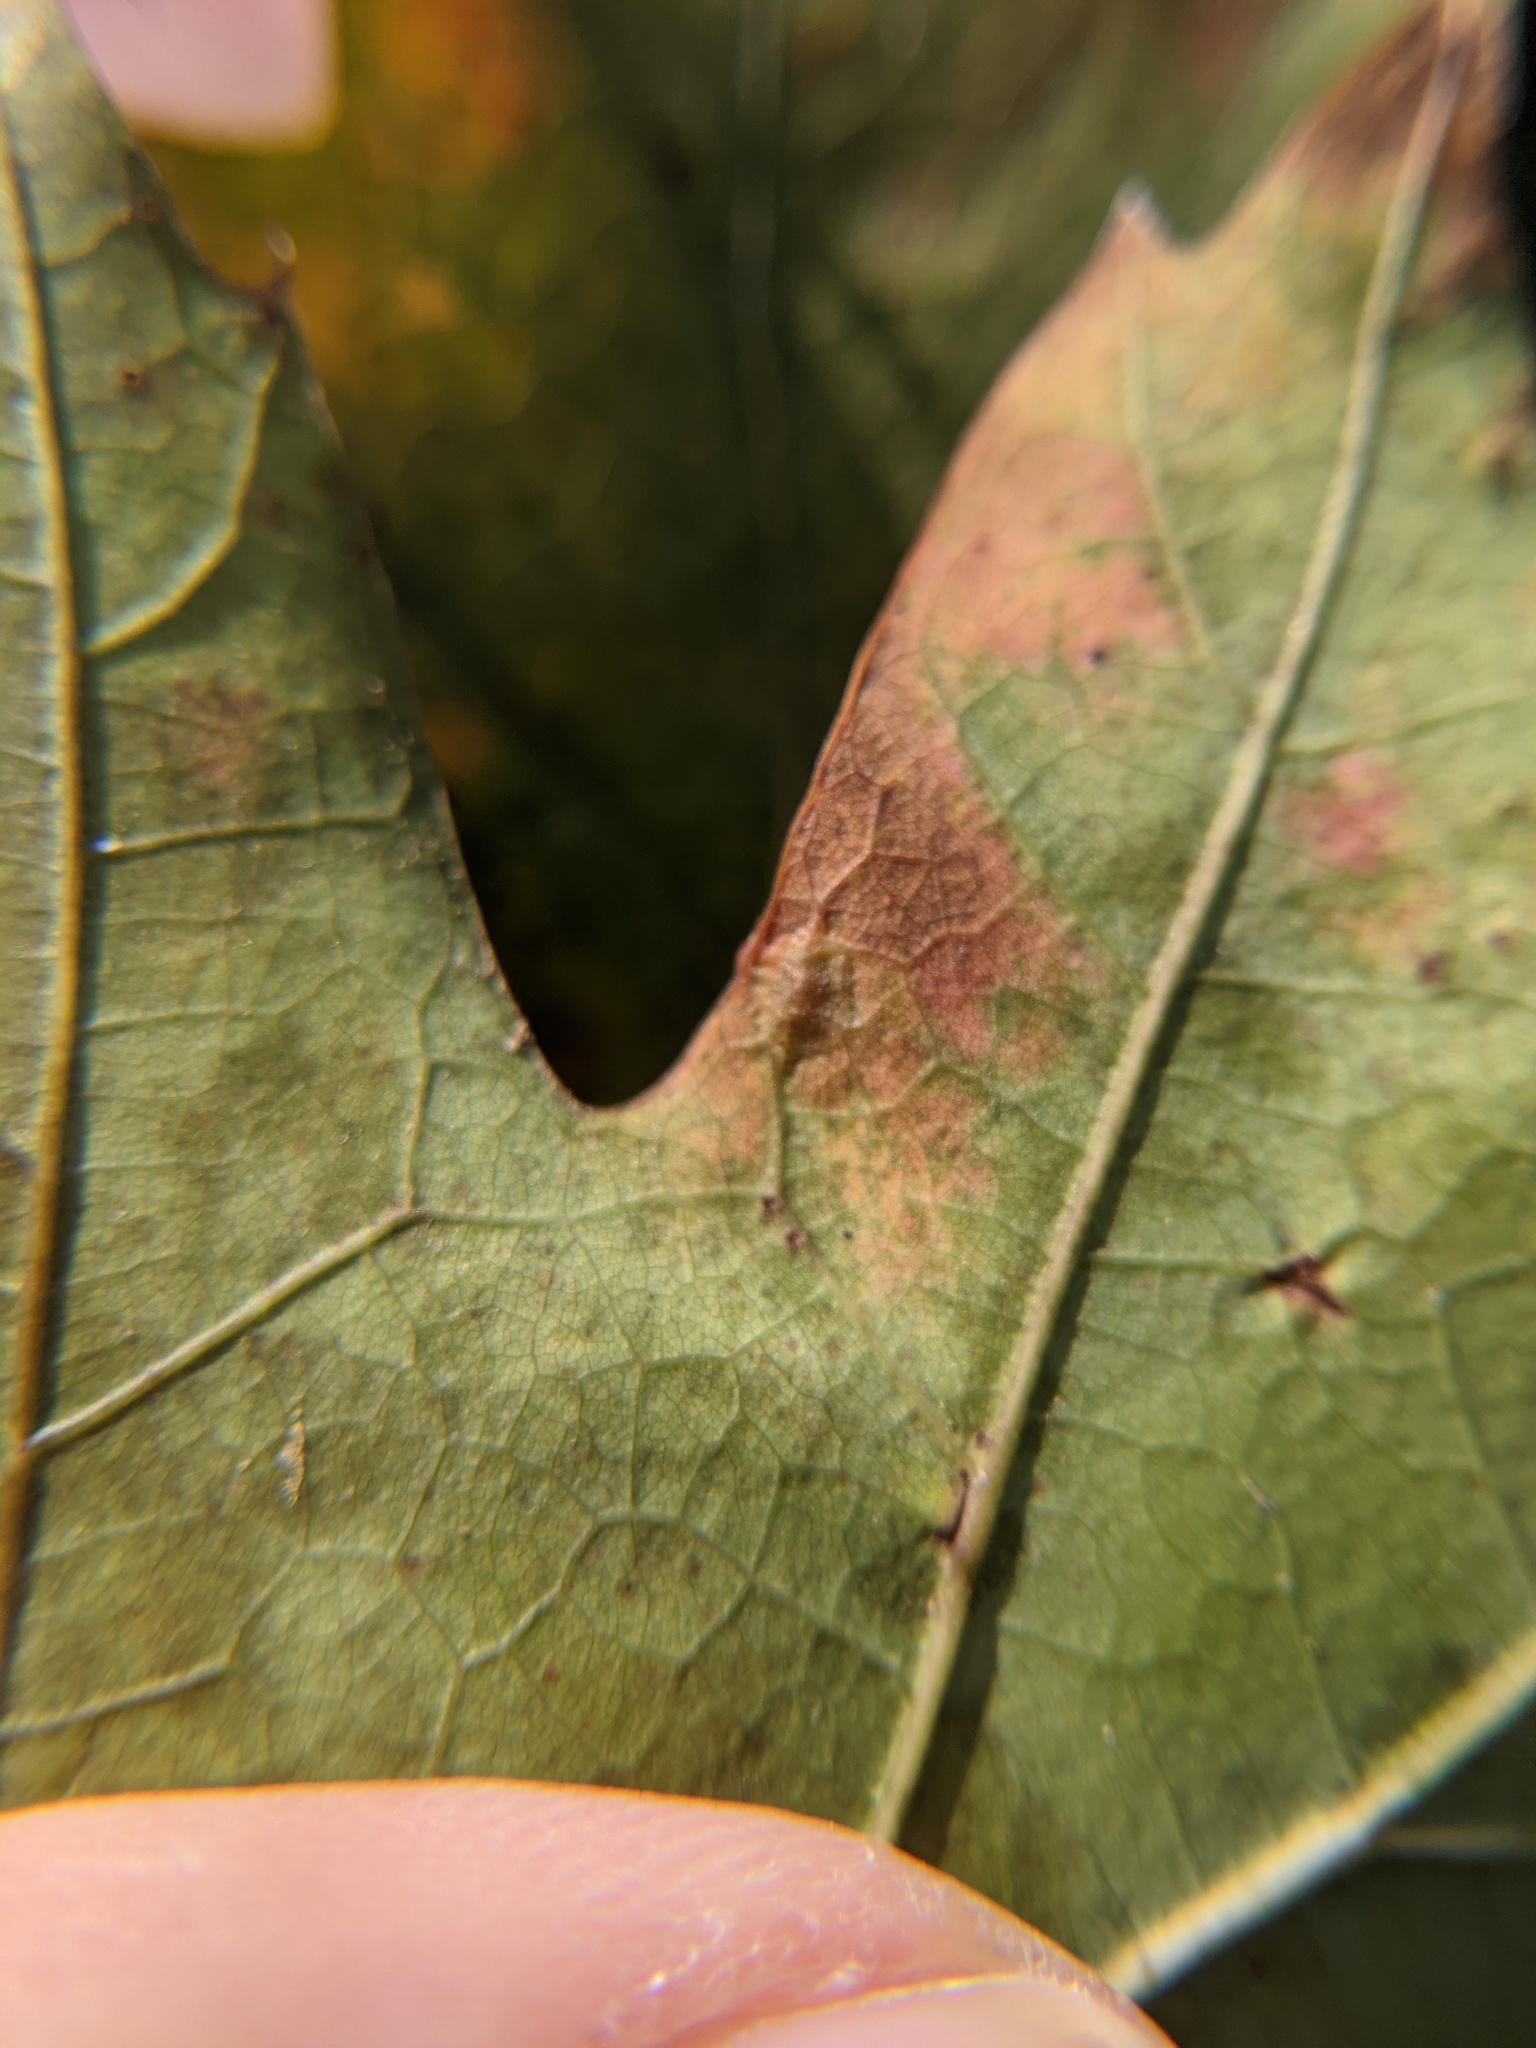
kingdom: Animalia
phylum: Arthropoda
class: Insecta
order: Diptera
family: Cecidomyiidae
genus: Polystepha
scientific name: Polystepha pilulae
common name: Oak leaf gall midge
